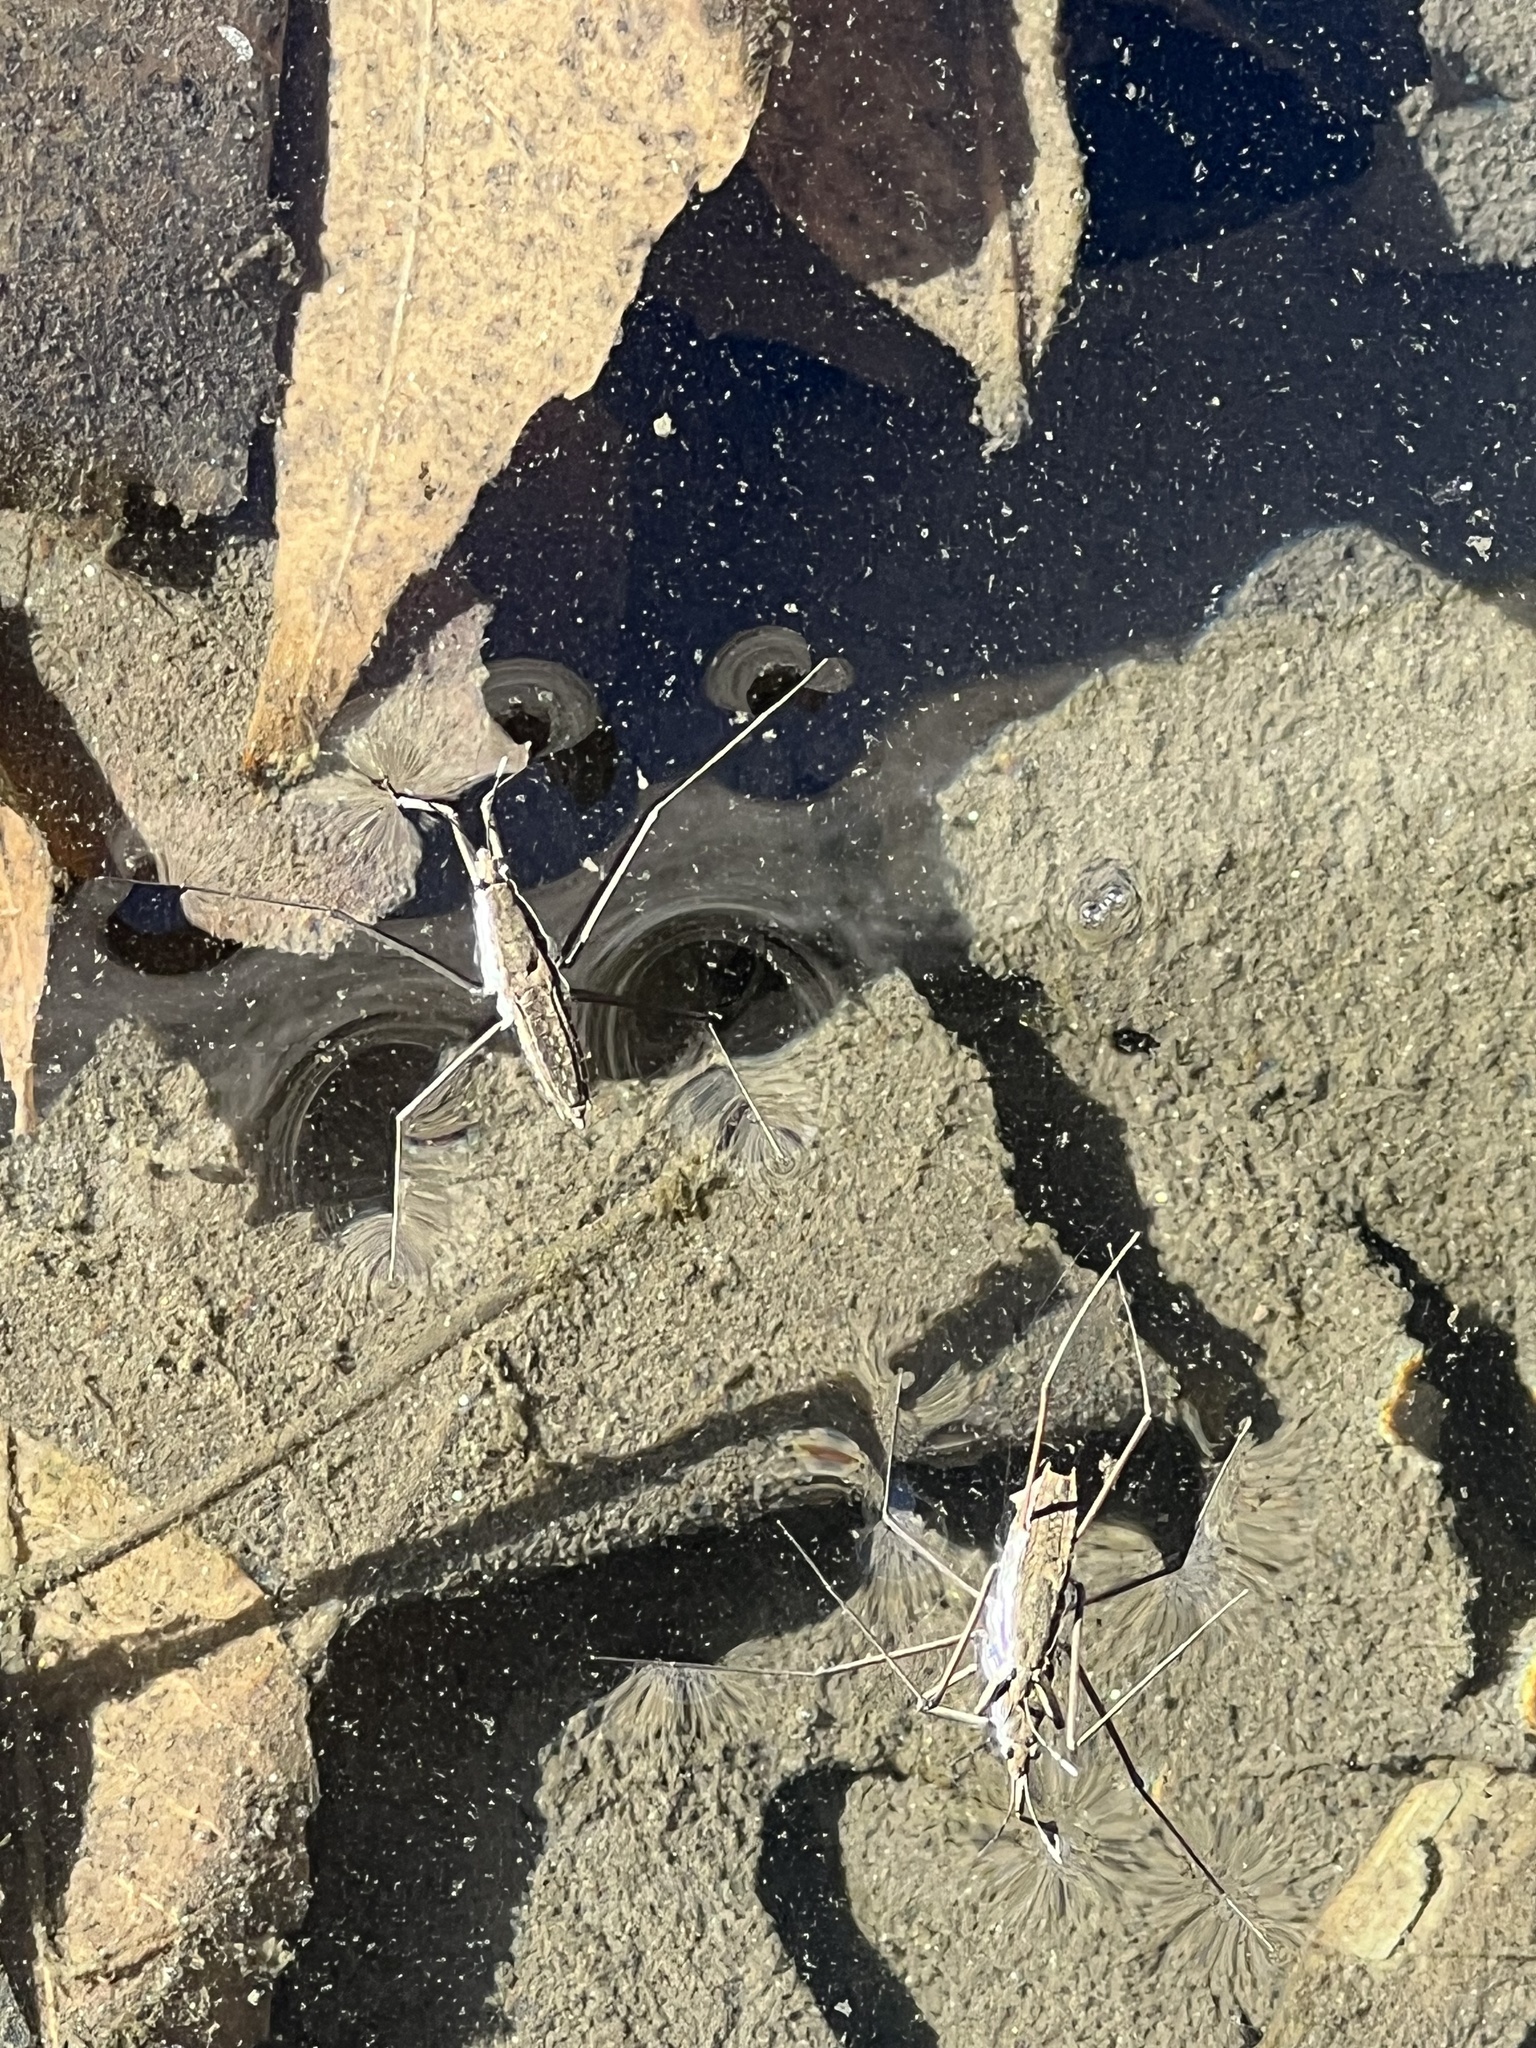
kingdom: Animalia
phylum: Arthropoda
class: Insecta
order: Hemiptera
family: Gerridae
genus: Aquarius
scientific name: Aquarius remigis
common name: Common water strider
